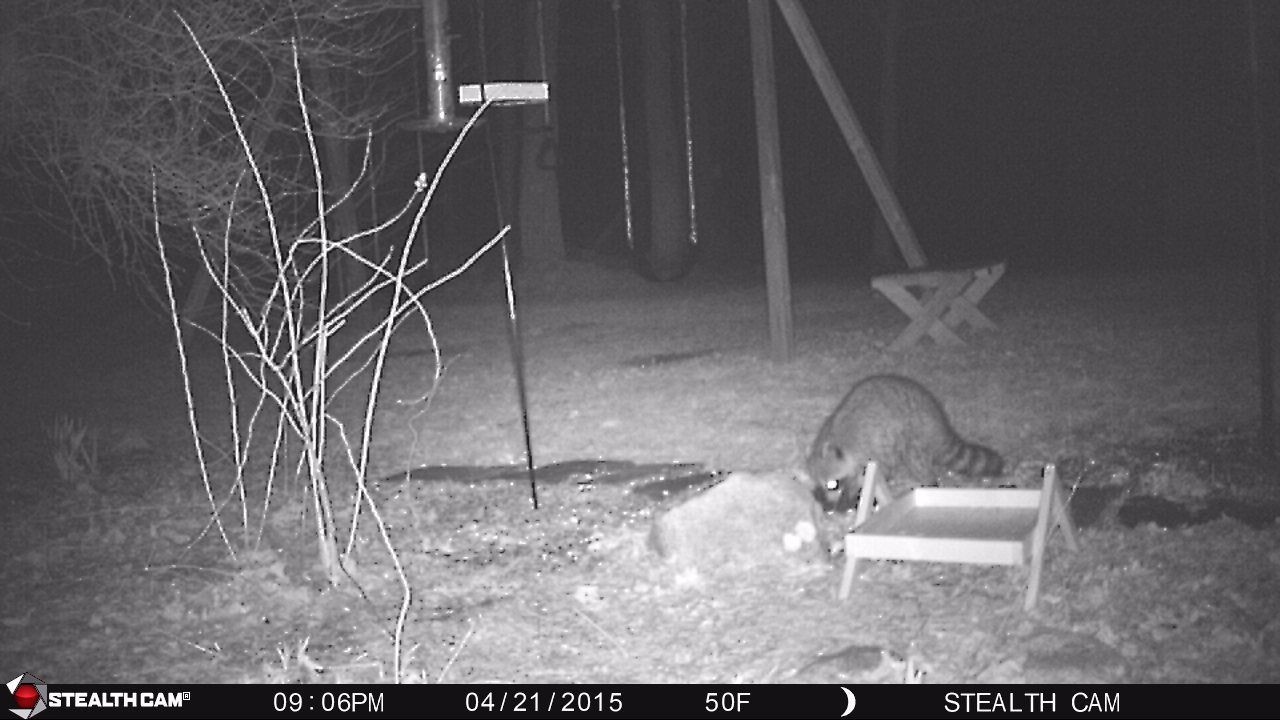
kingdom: Animalia
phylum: Chordata
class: Mammalia
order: Carnivora
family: Procyonidae
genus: Procyon
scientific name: Procyon lotor
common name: Raccoon
